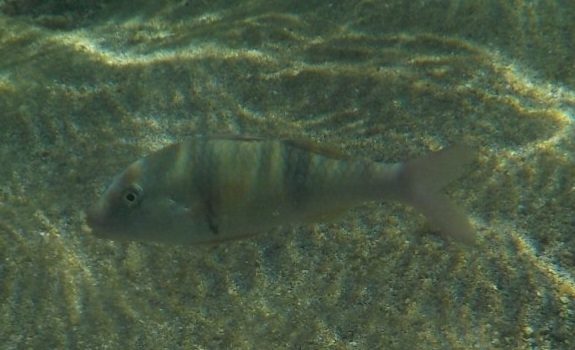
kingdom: Animalia
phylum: Chordata
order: Perciformes
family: Mullidae
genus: Parupeneus
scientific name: Parupeneus trifasciatus
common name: Doublebar goatfish
